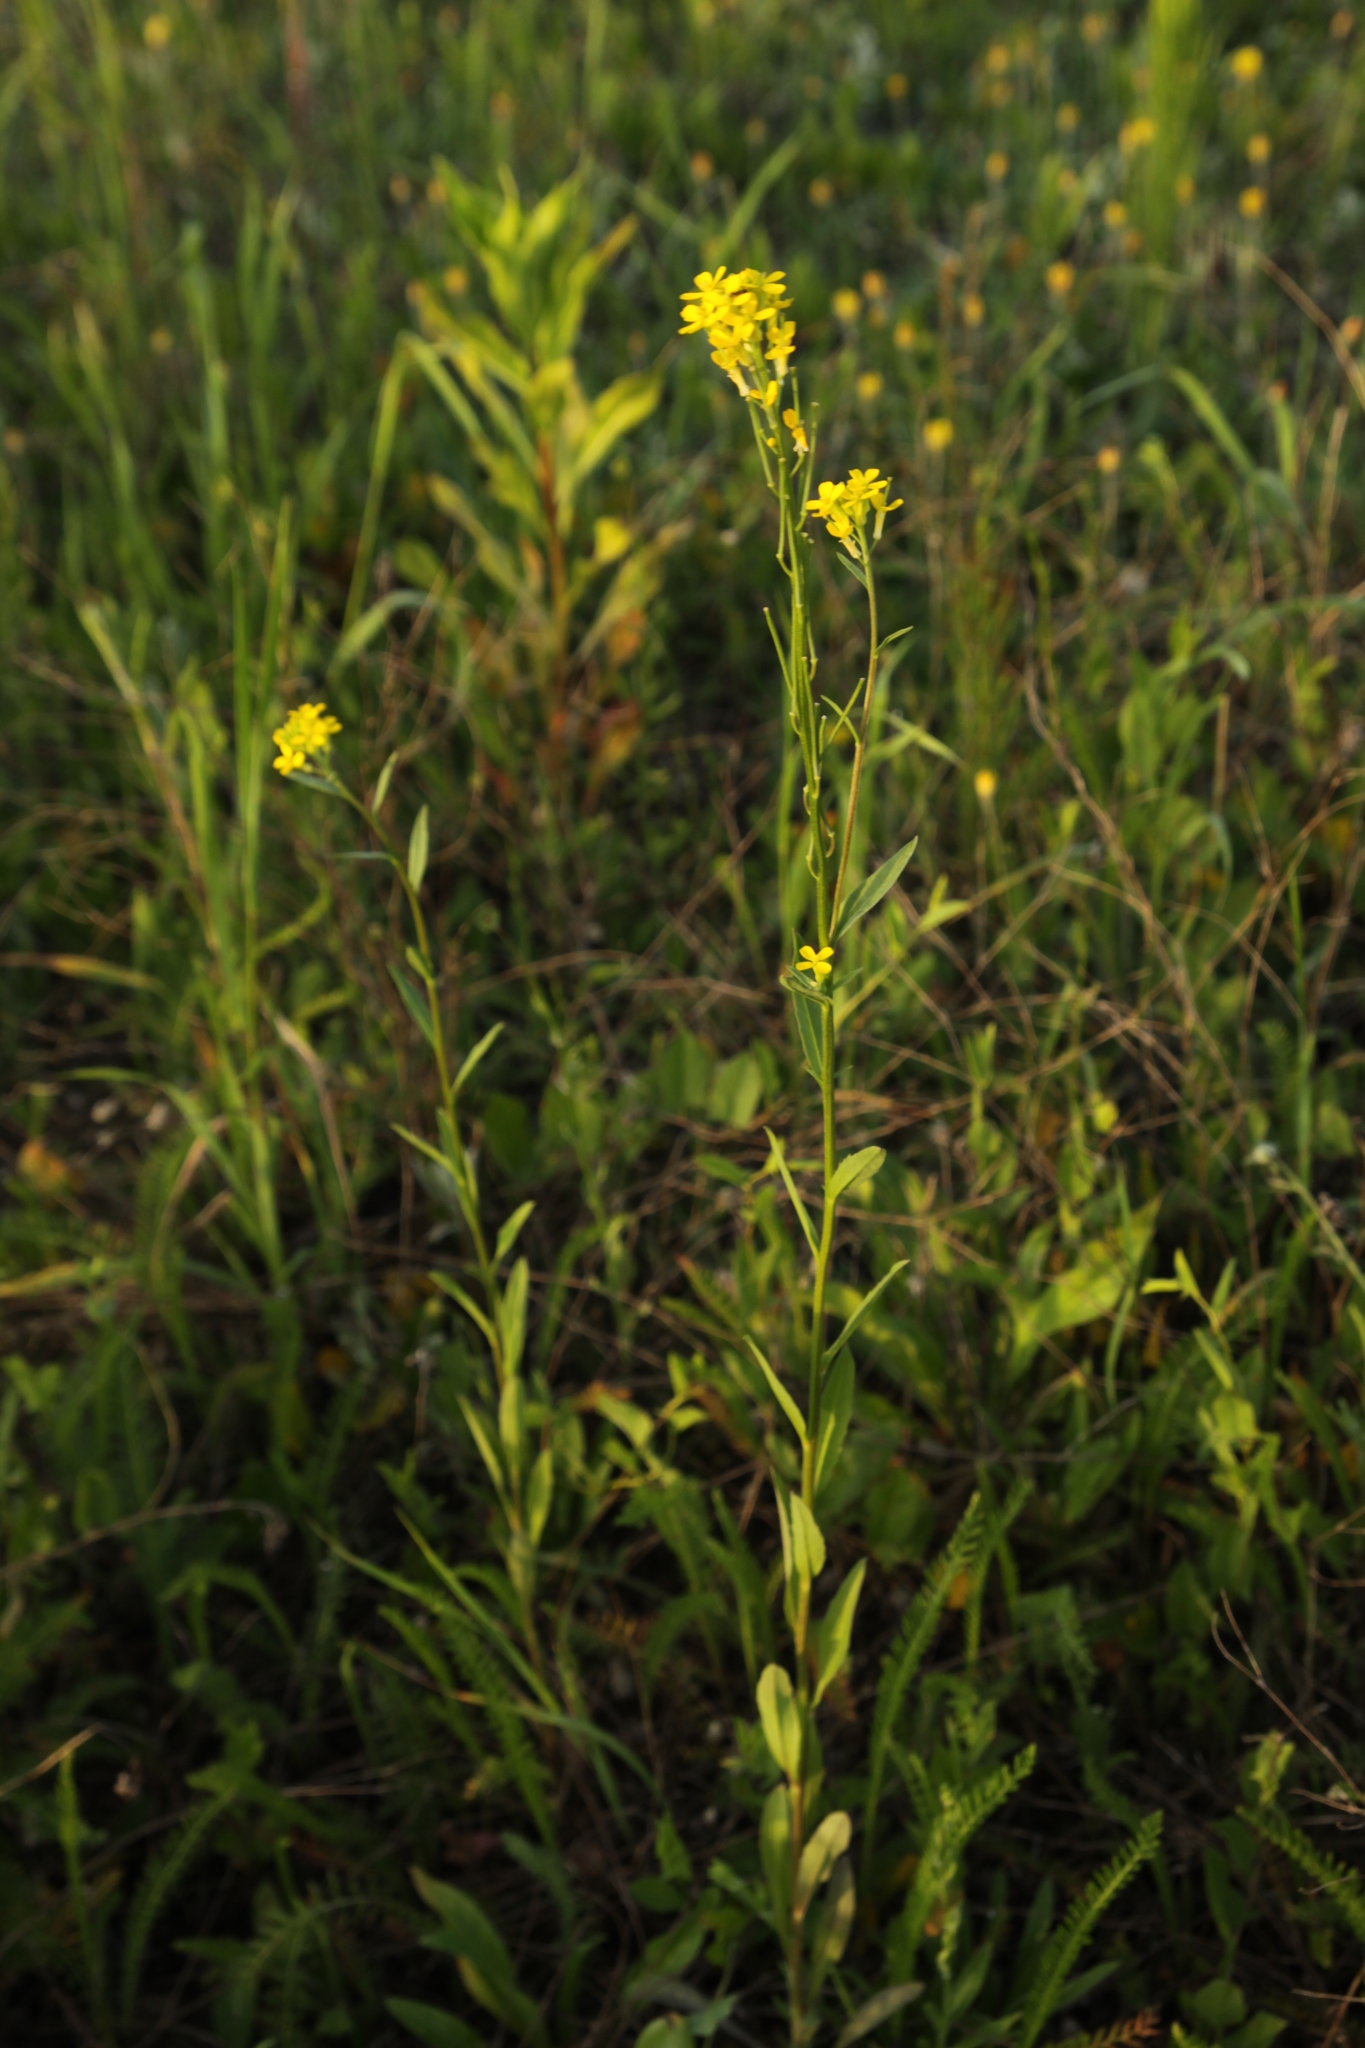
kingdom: Plantae
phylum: Tracheophyta
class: Magnoliopsida
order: Brassicales
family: Brassicaceae
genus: Erysimum
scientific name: Erysimum cheiranthoides
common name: Treacle mustard
